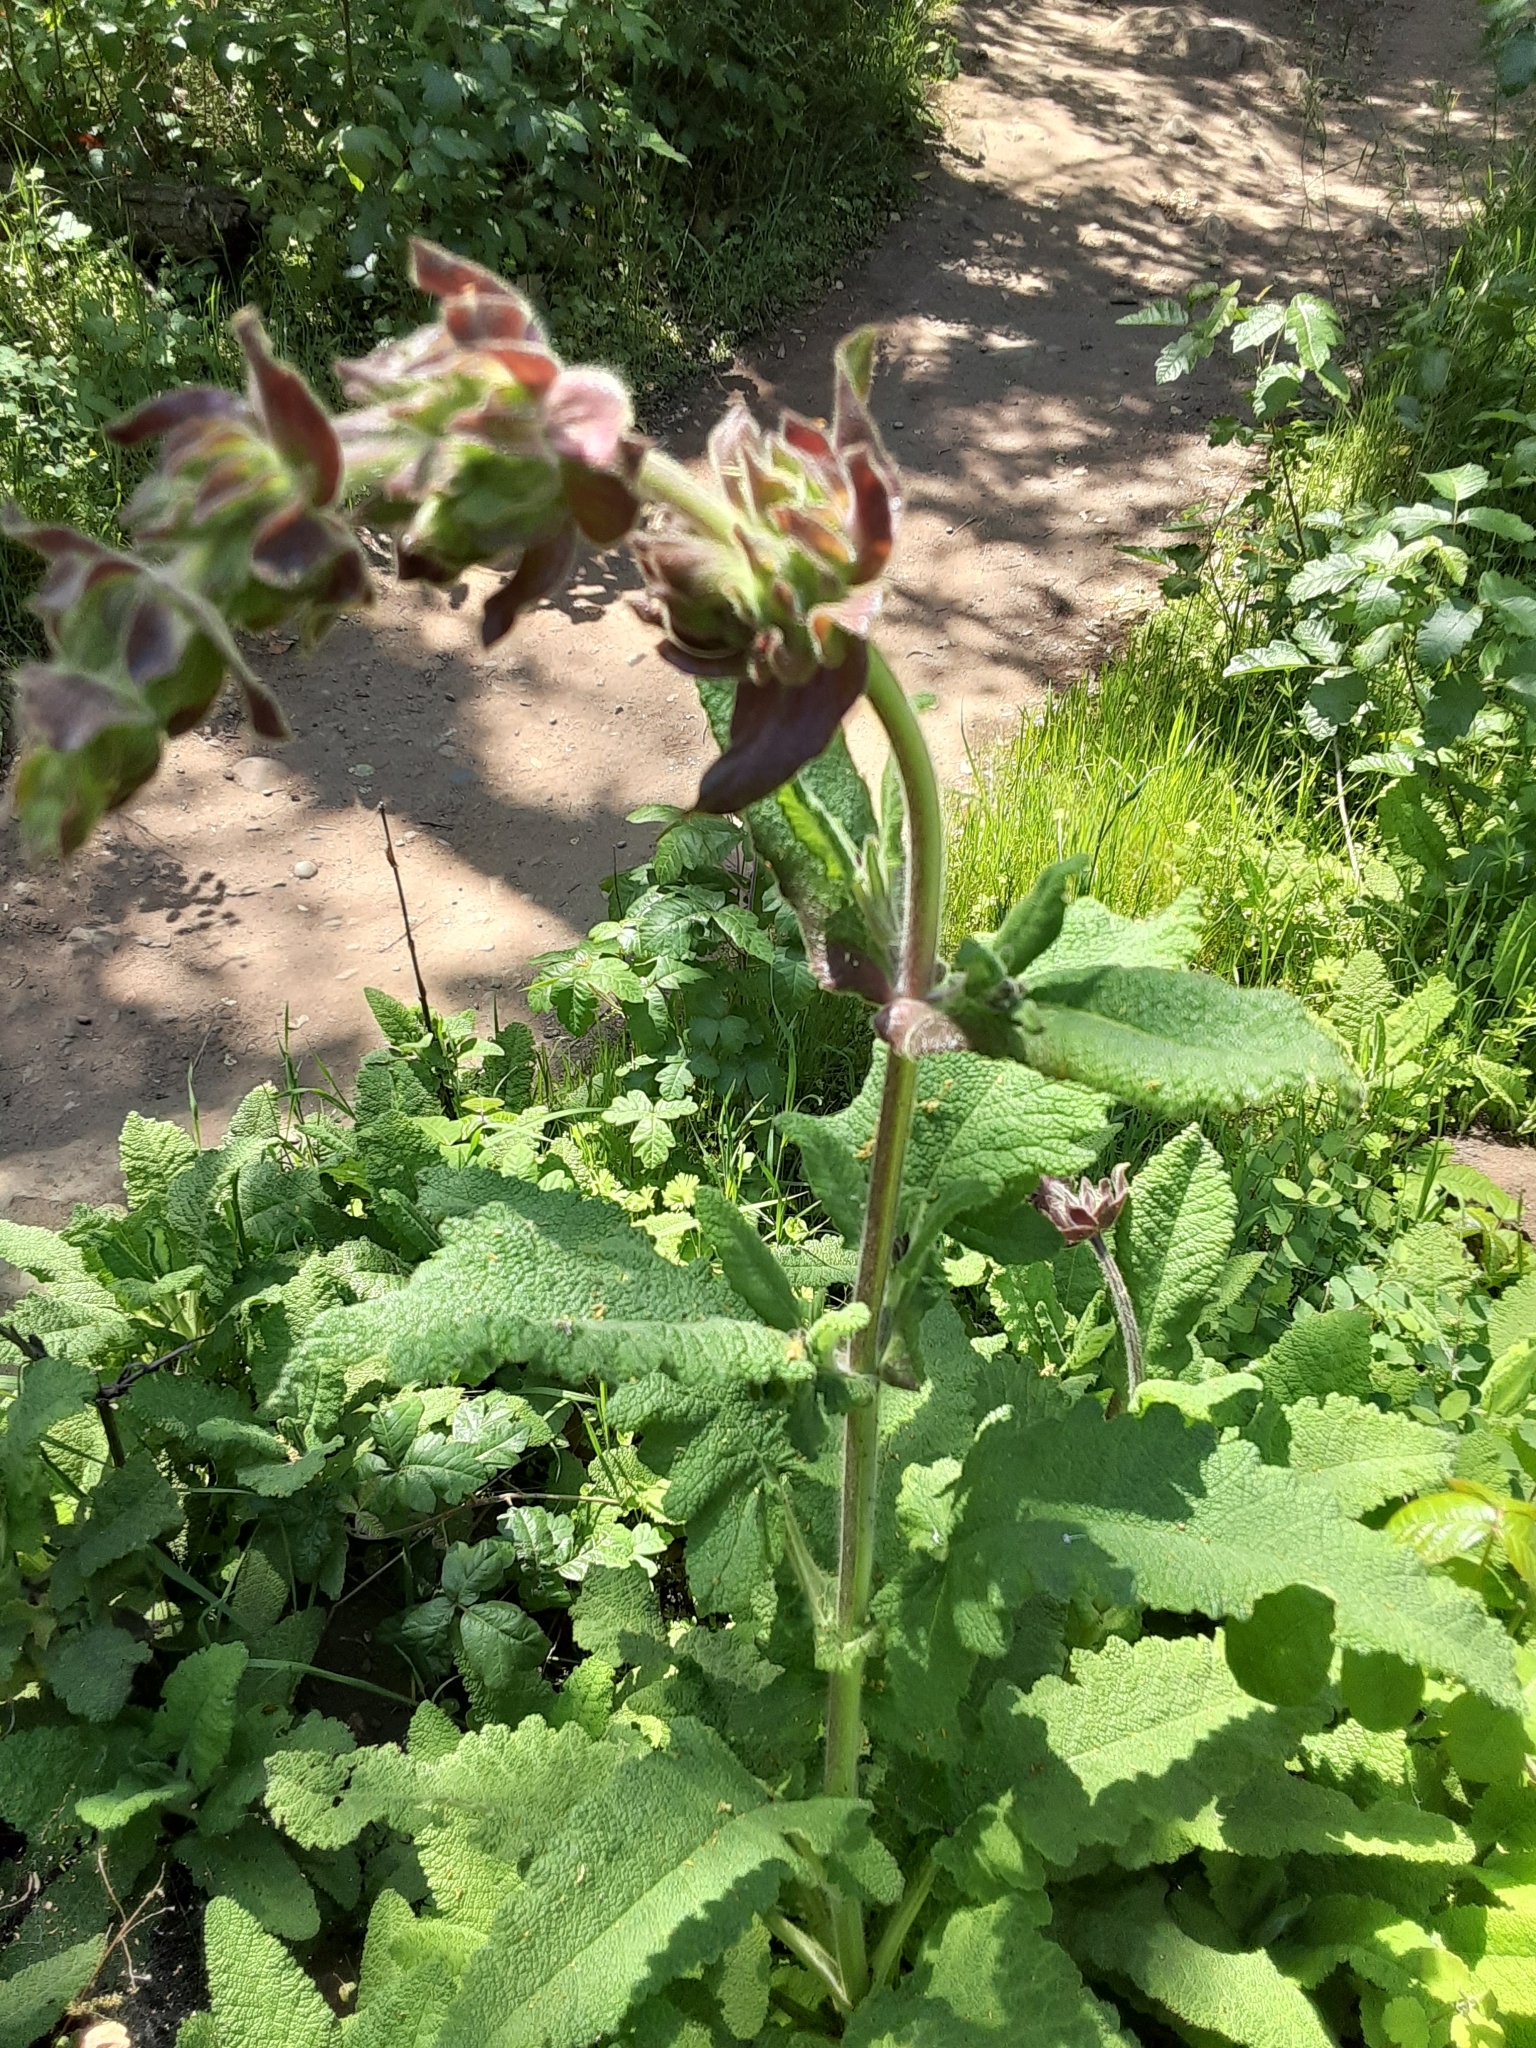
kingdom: Plantae
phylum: Tracheophyta
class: Magnoliopsida
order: Lamiales
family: Lamiaceae
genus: Salvia
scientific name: Salvia spathacea
